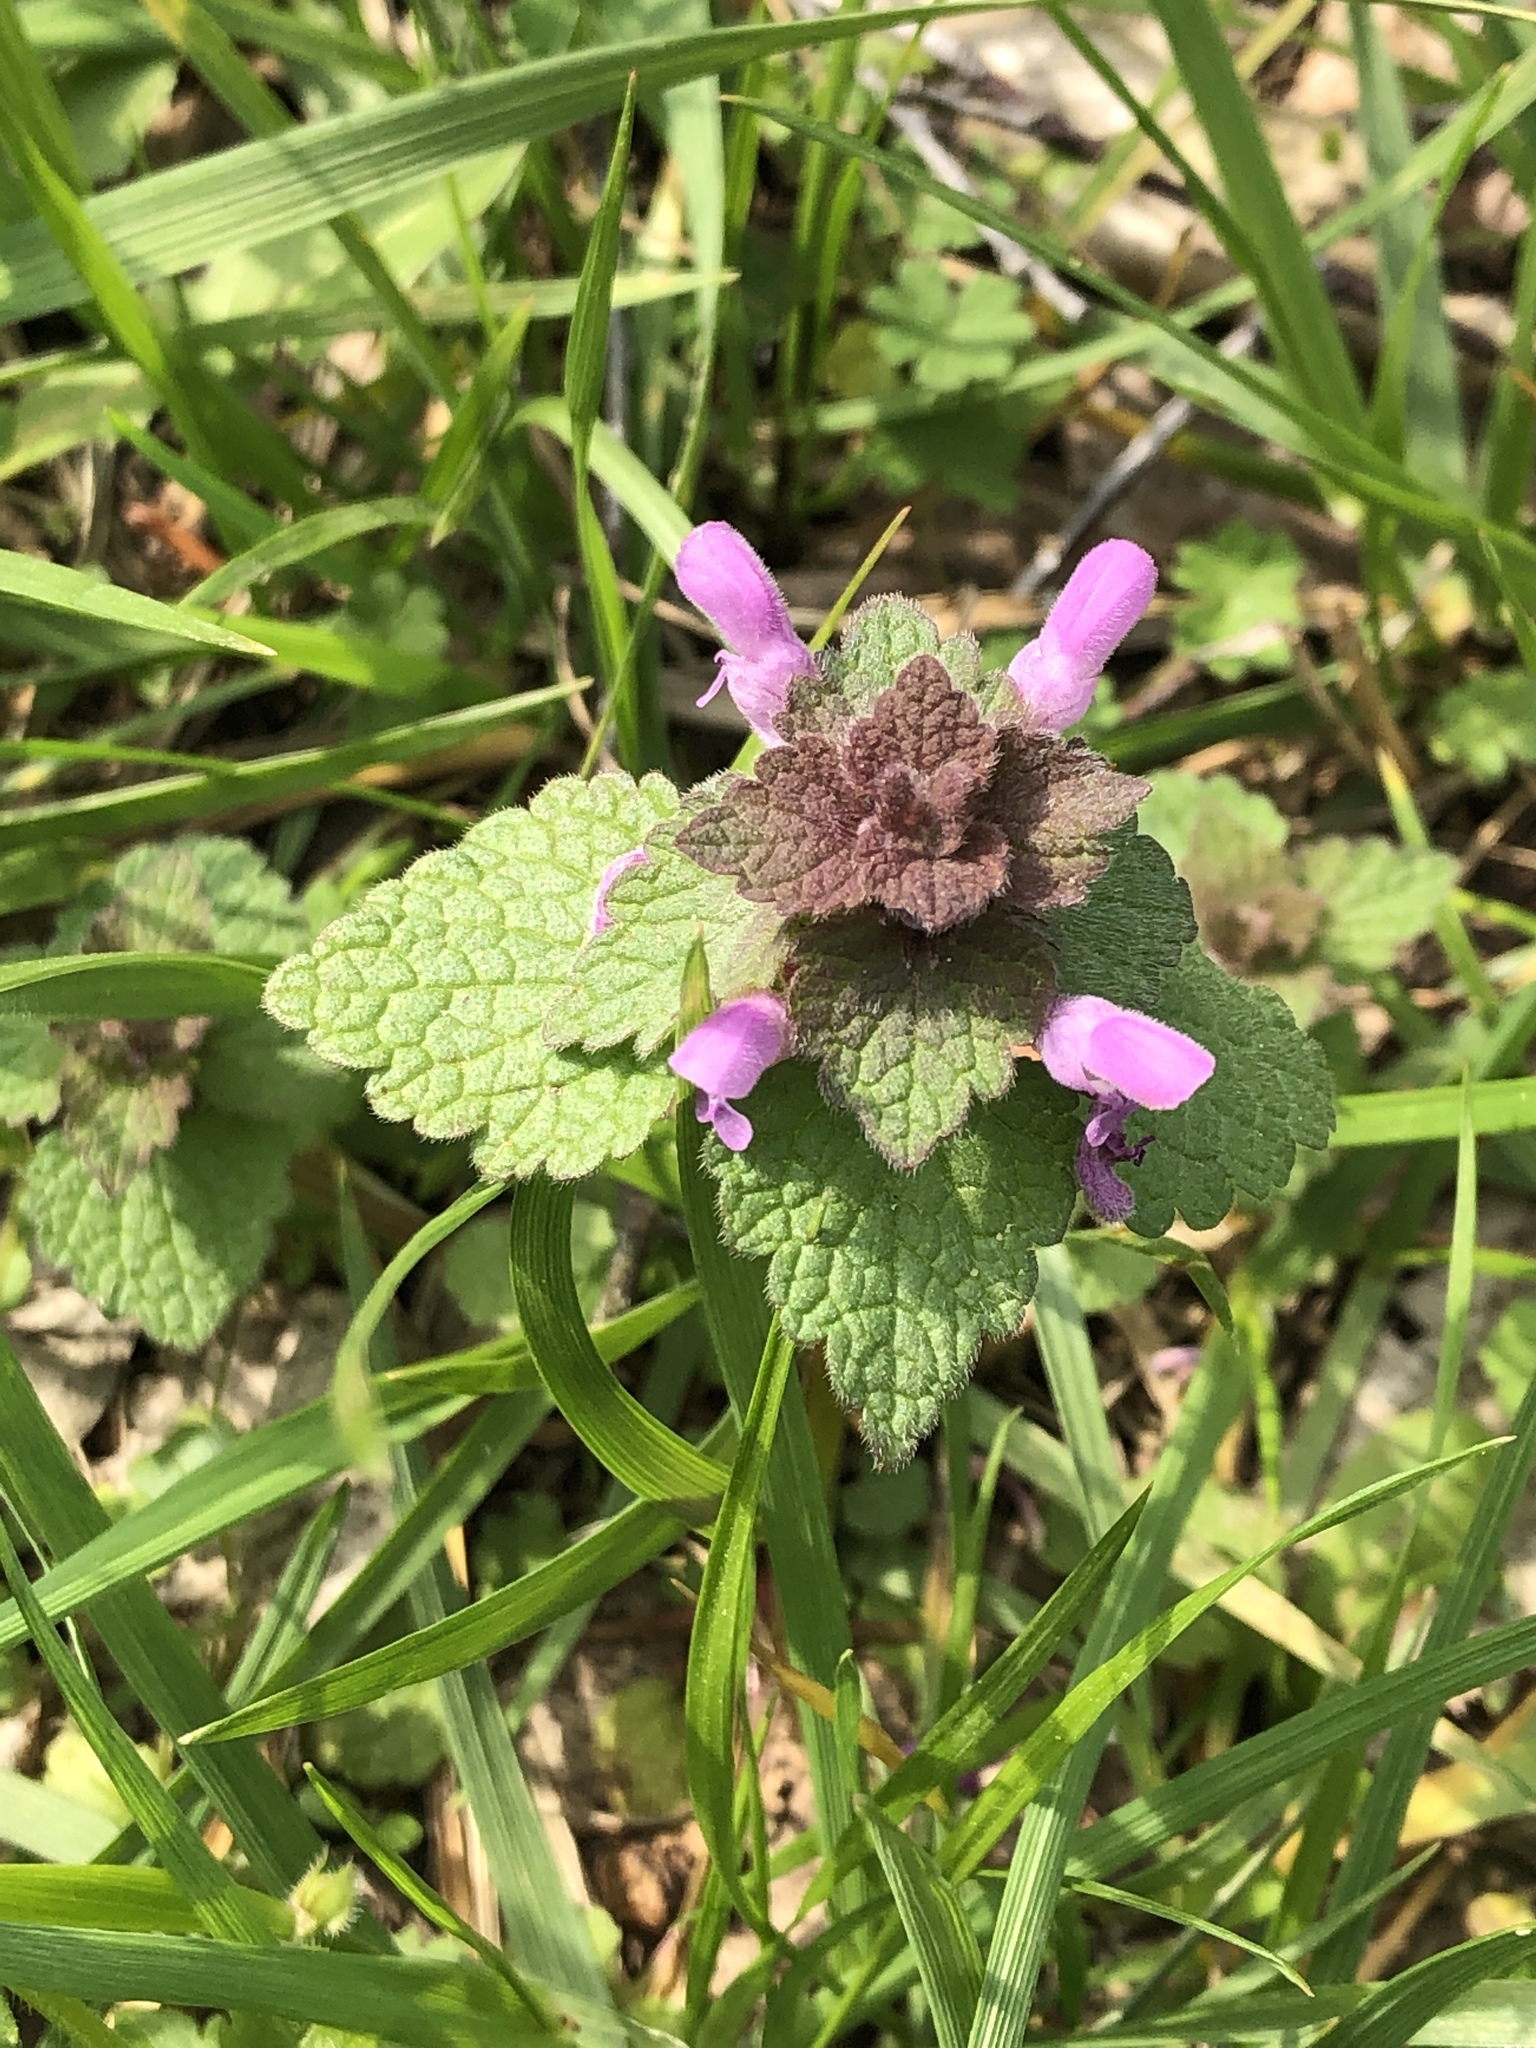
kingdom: Plantae
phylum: Tracheophyta
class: Magnoliopsida
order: Lamiales
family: Lamiaceae
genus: Lamium
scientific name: Lamium purpureum
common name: Red dead-nettle
